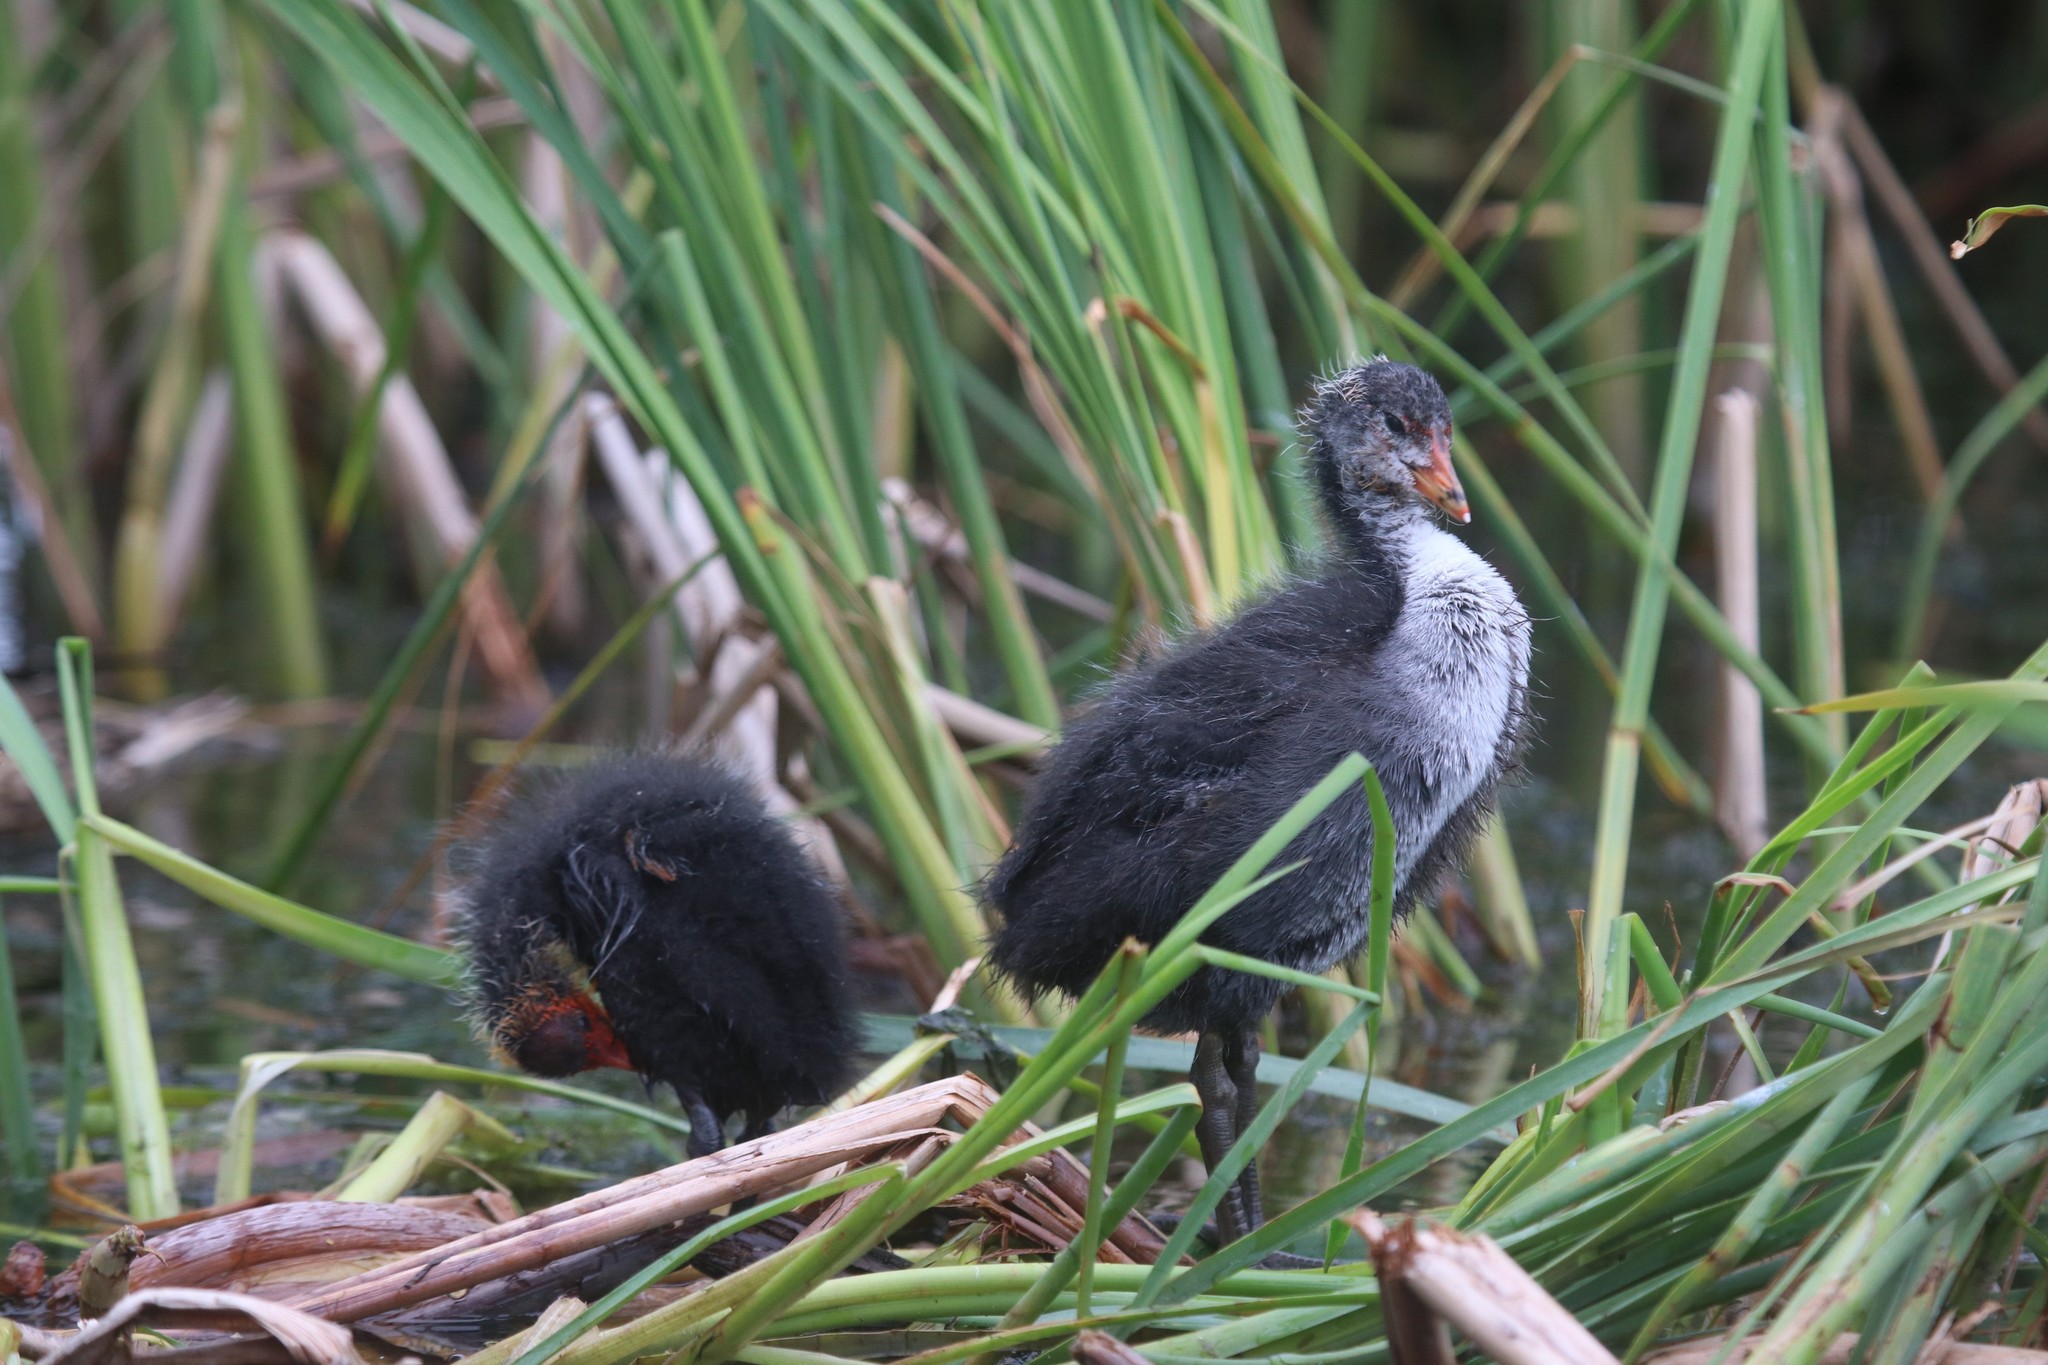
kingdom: Animalia
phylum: Chordata
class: Aves
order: Gruiformes
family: Rallidae
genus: Fulica
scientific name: Fulica atra
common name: Eurasian coot
